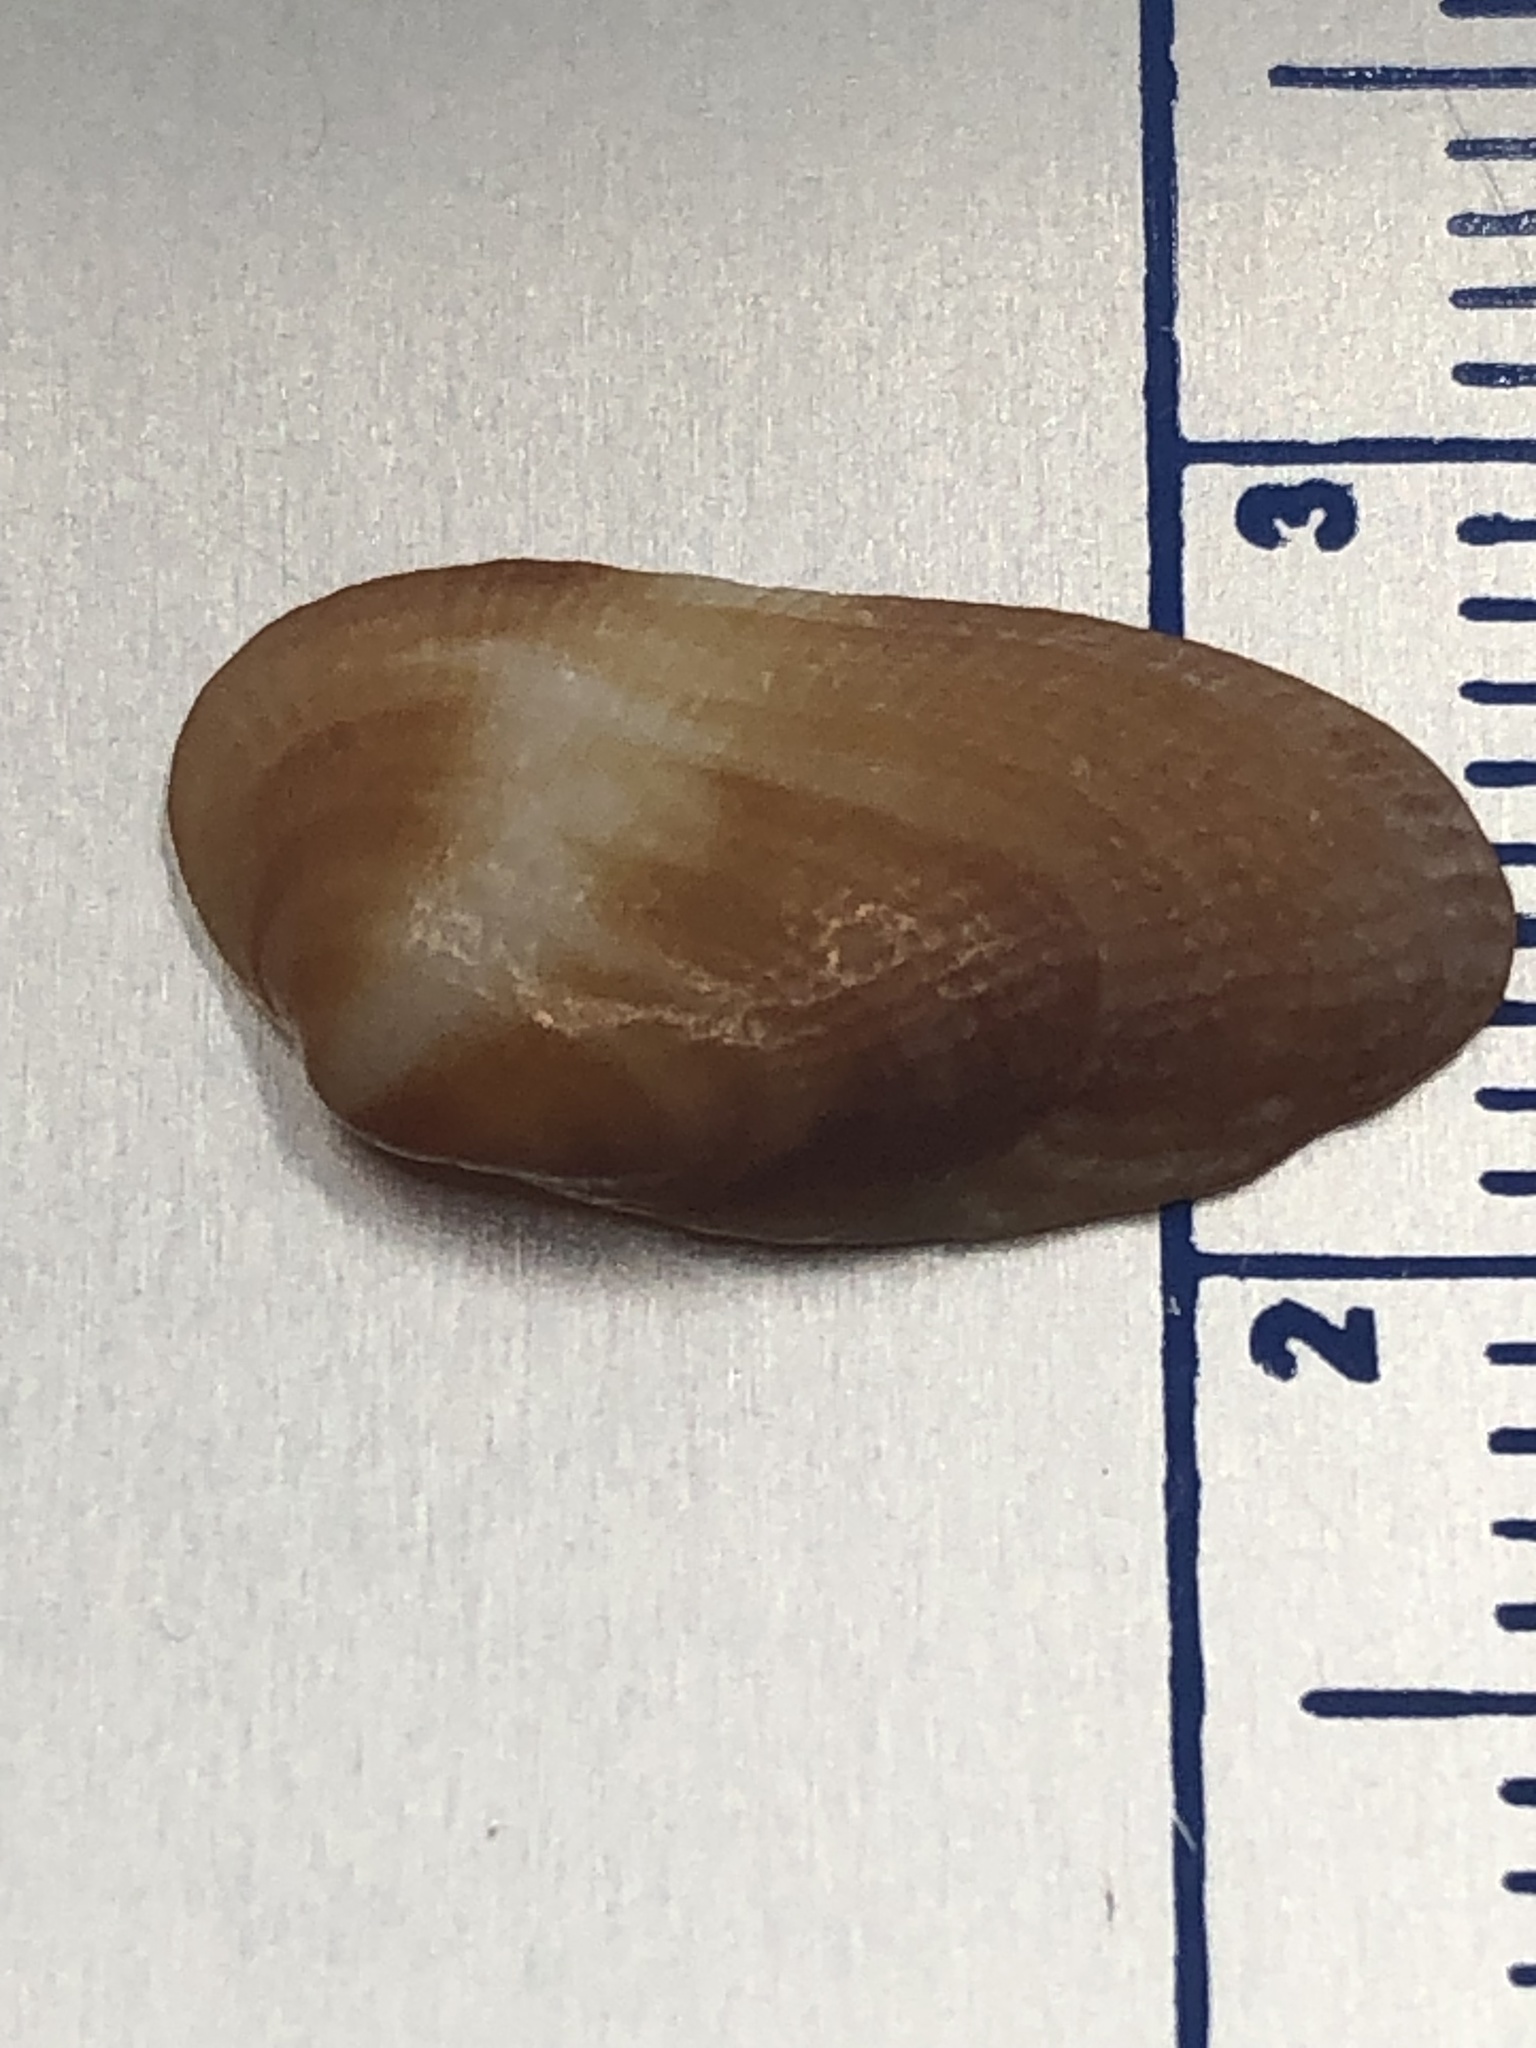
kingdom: Animalia
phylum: Mollusca
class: Bivalvia
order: Arcida
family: Arcidae
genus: Barbatia
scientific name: Barbatia domingensis
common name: White miniature ark
